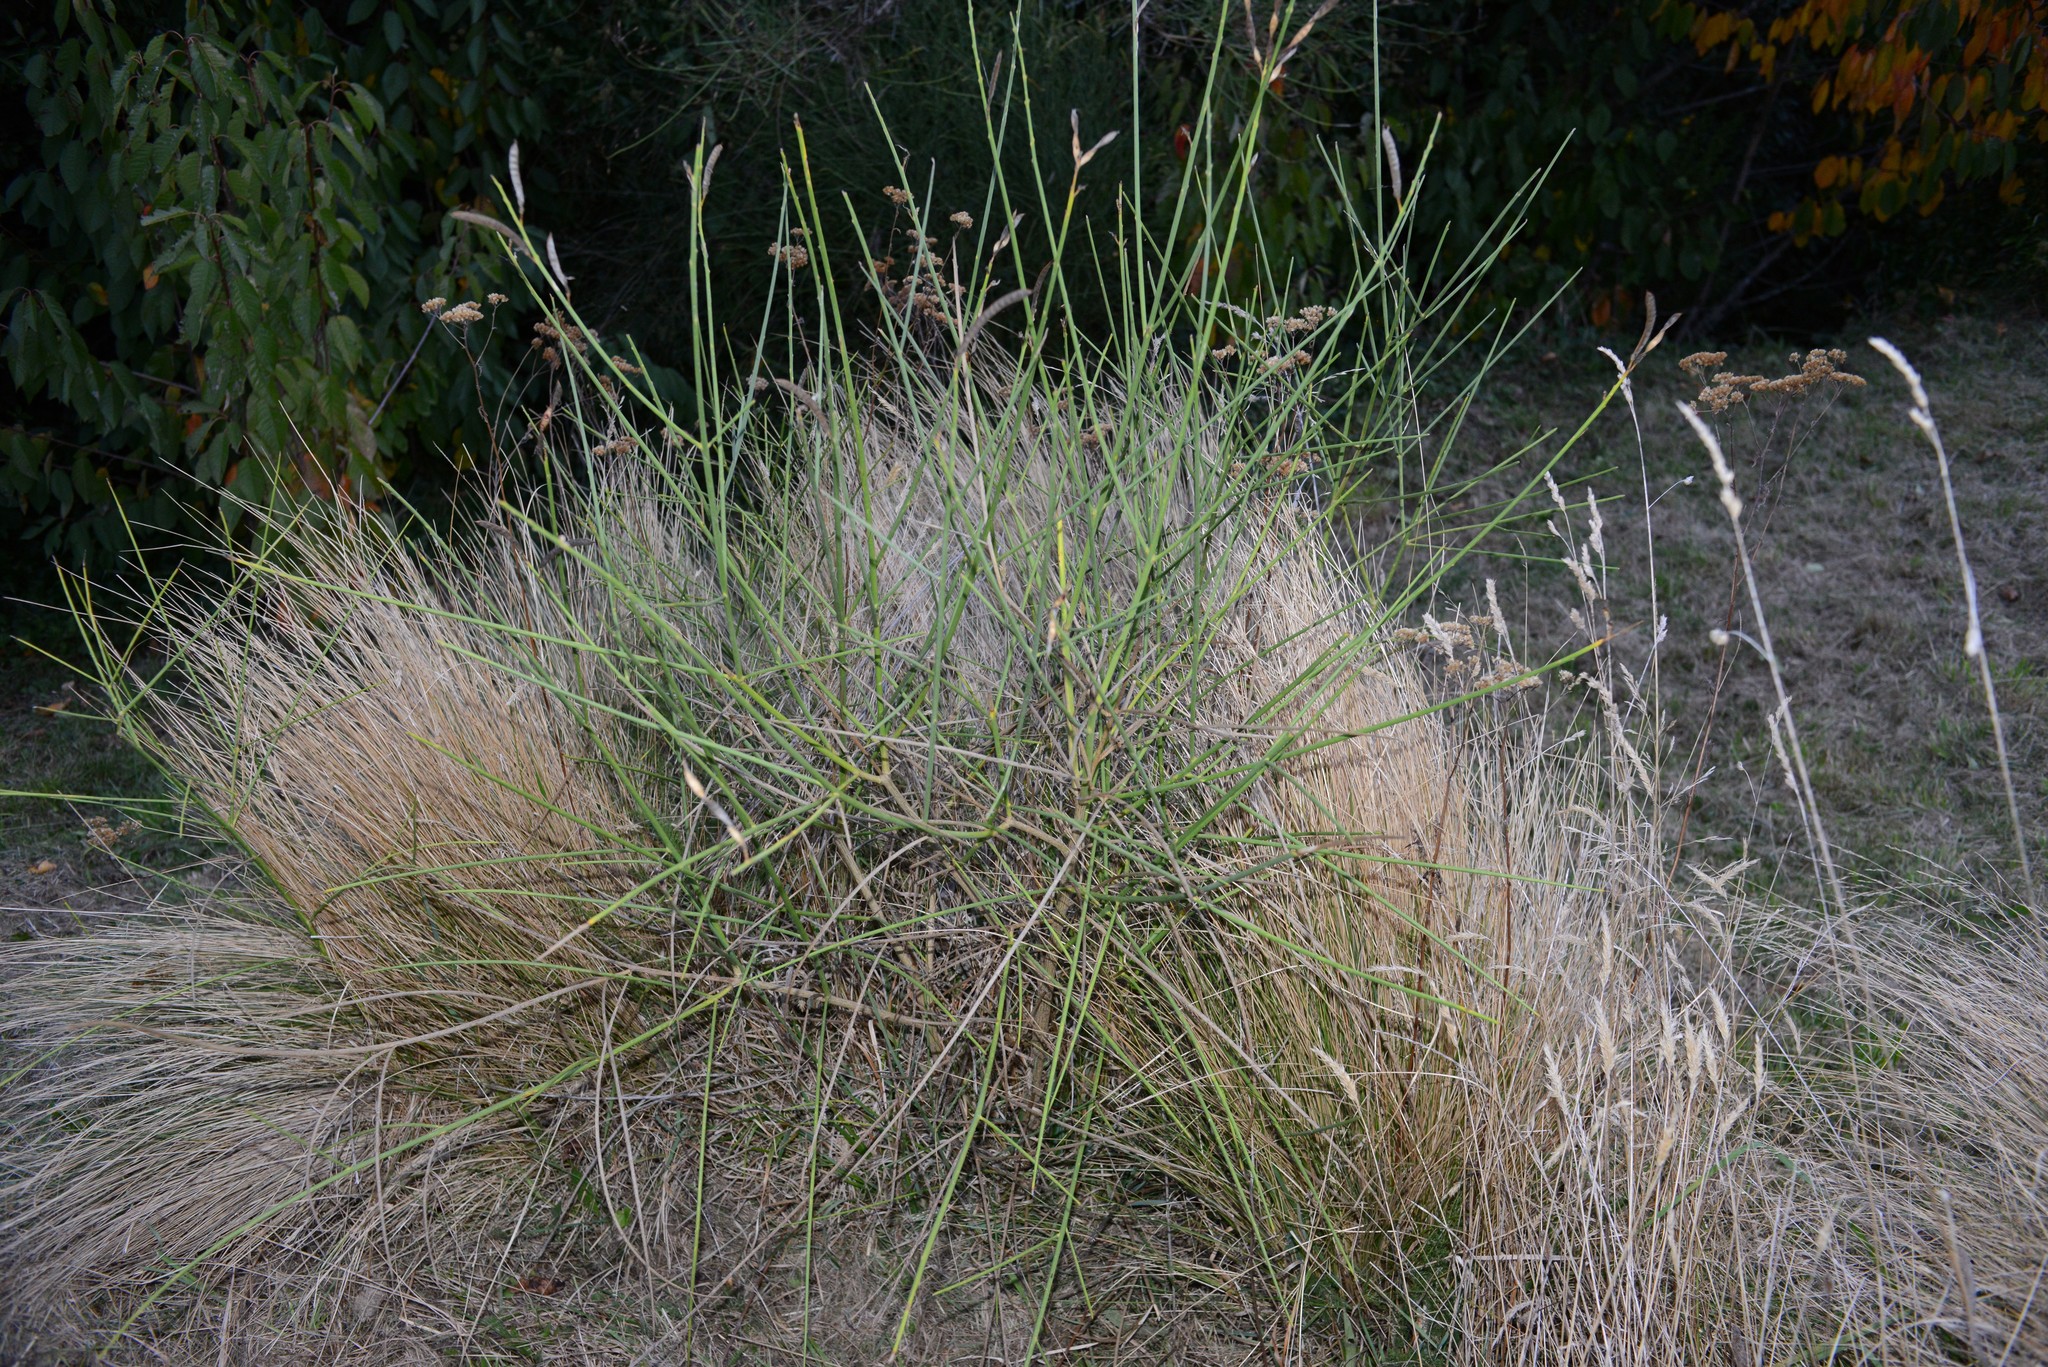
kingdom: Plantae
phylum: Tracheophyta
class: Magnoliopsida
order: Fabales
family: Fabaceae
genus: Spartium
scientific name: Spartium junceum
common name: Spanish broom
